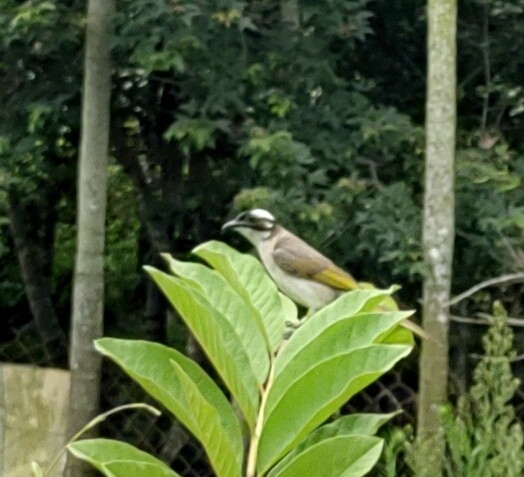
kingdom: Animalia
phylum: Chordata
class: Aves
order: Passeriformes
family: Pycnonotidae
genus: Pycnonotus
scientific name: Pycnonotus sinensis
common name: Light-vented bulbul
